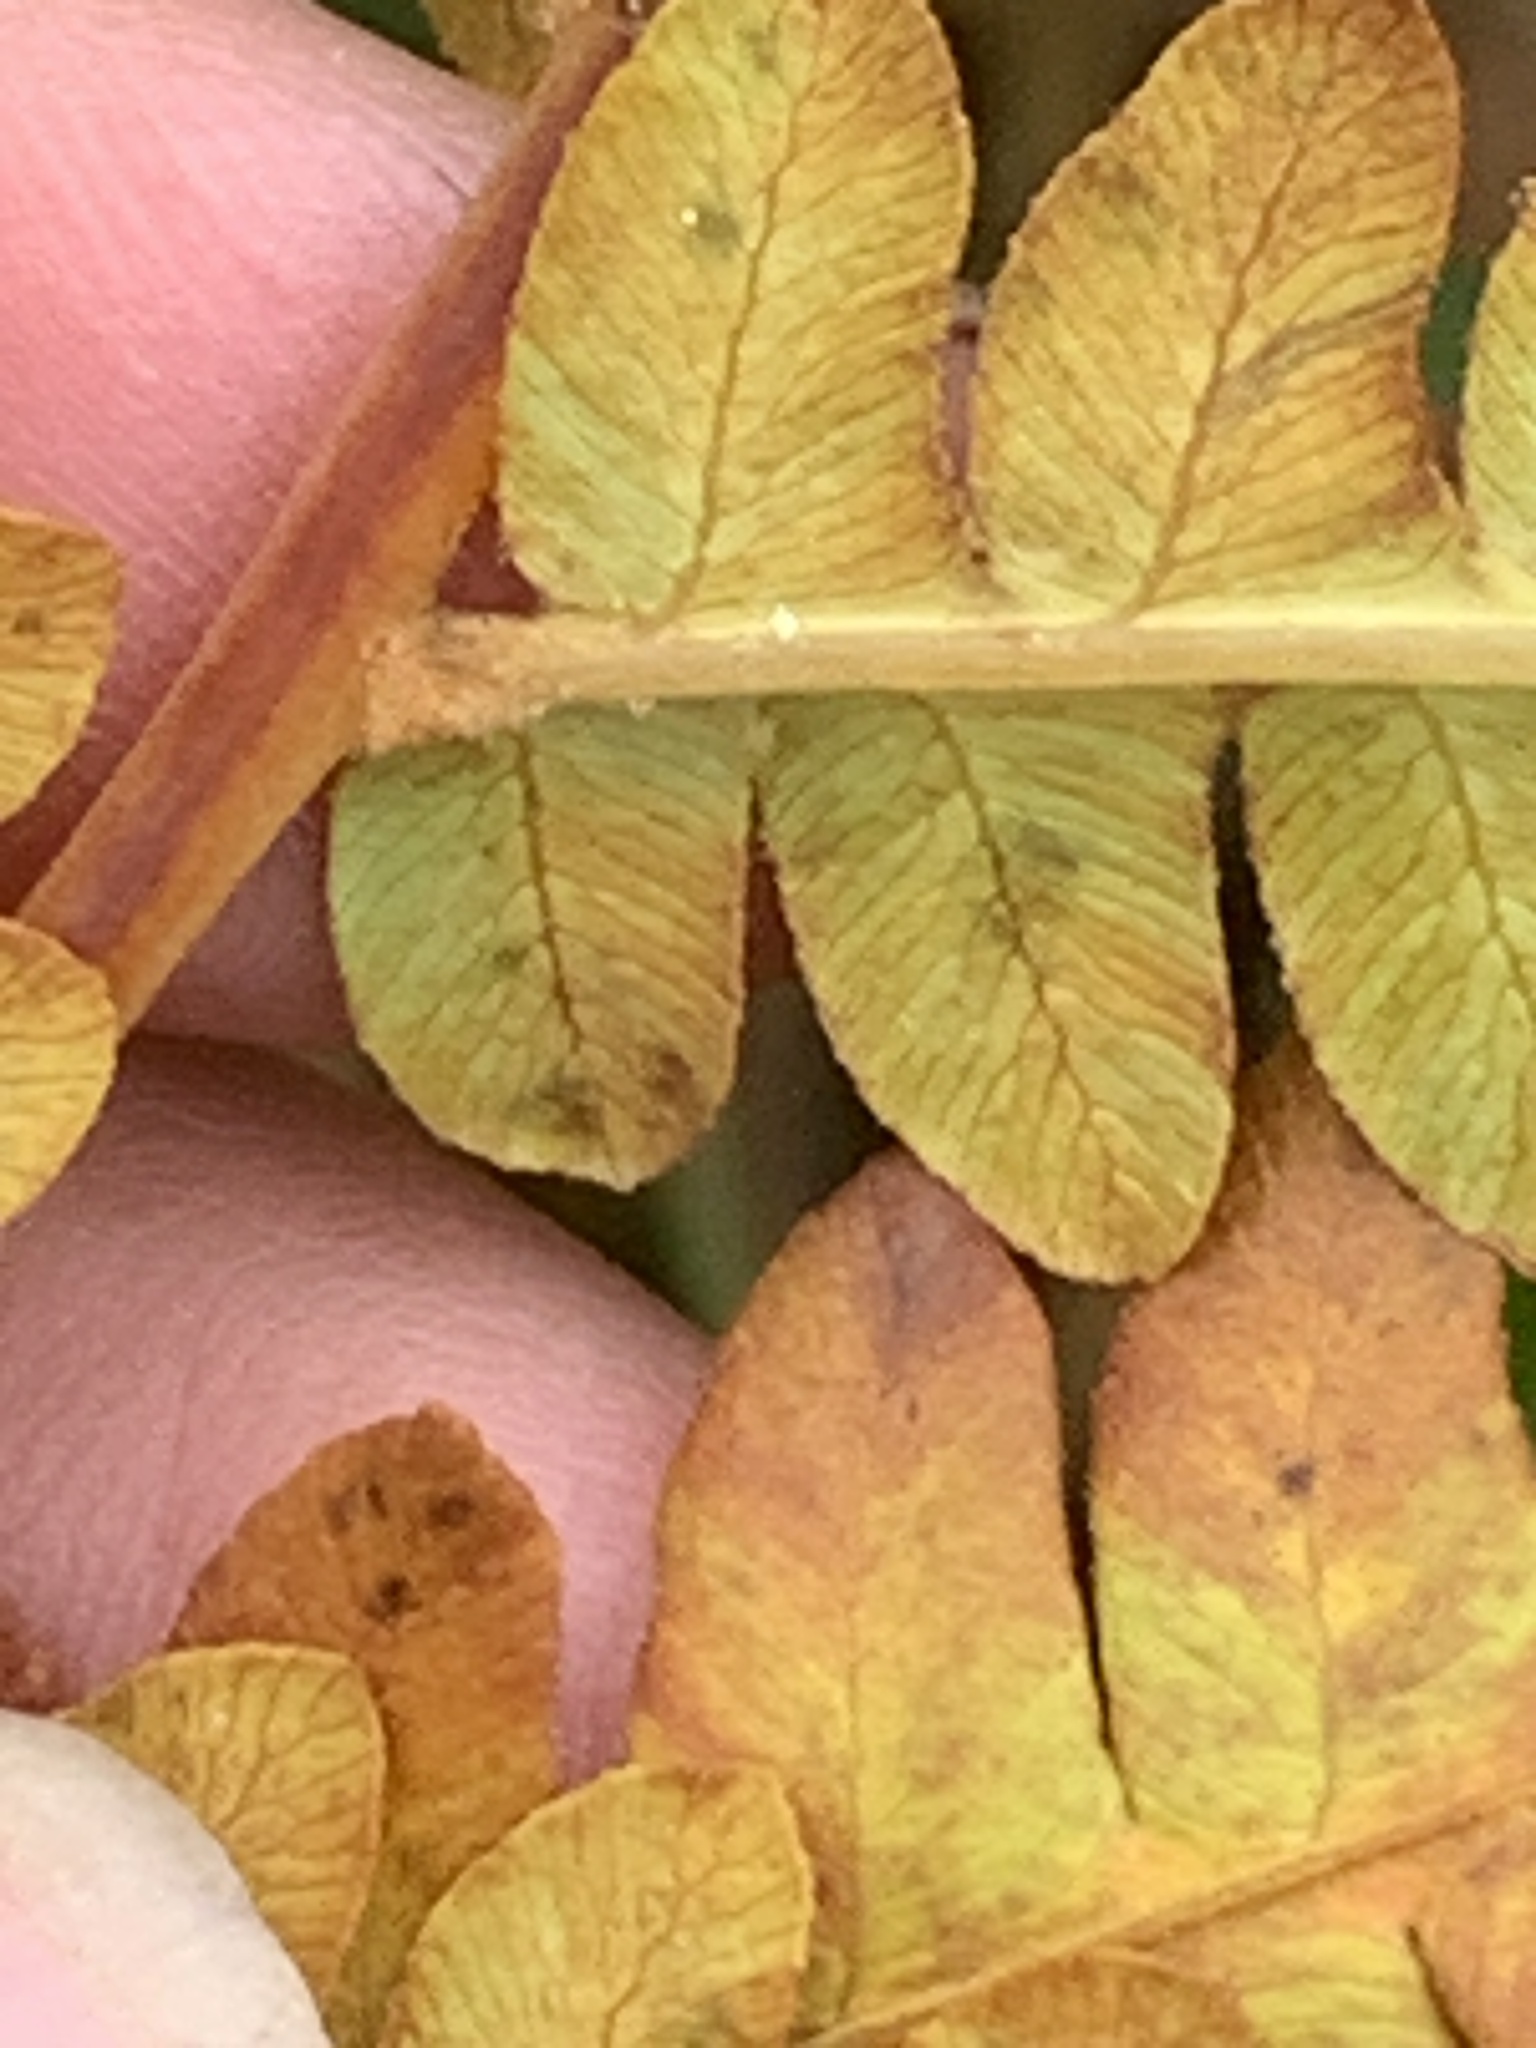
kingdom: Plantae
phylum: Tracheophyta
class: Polypodiopsida
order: Osmundales
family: Osmundaceae
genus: Osmundastrum
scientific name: Osmundastrum cinnamomeum
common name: Cinnamon fern
